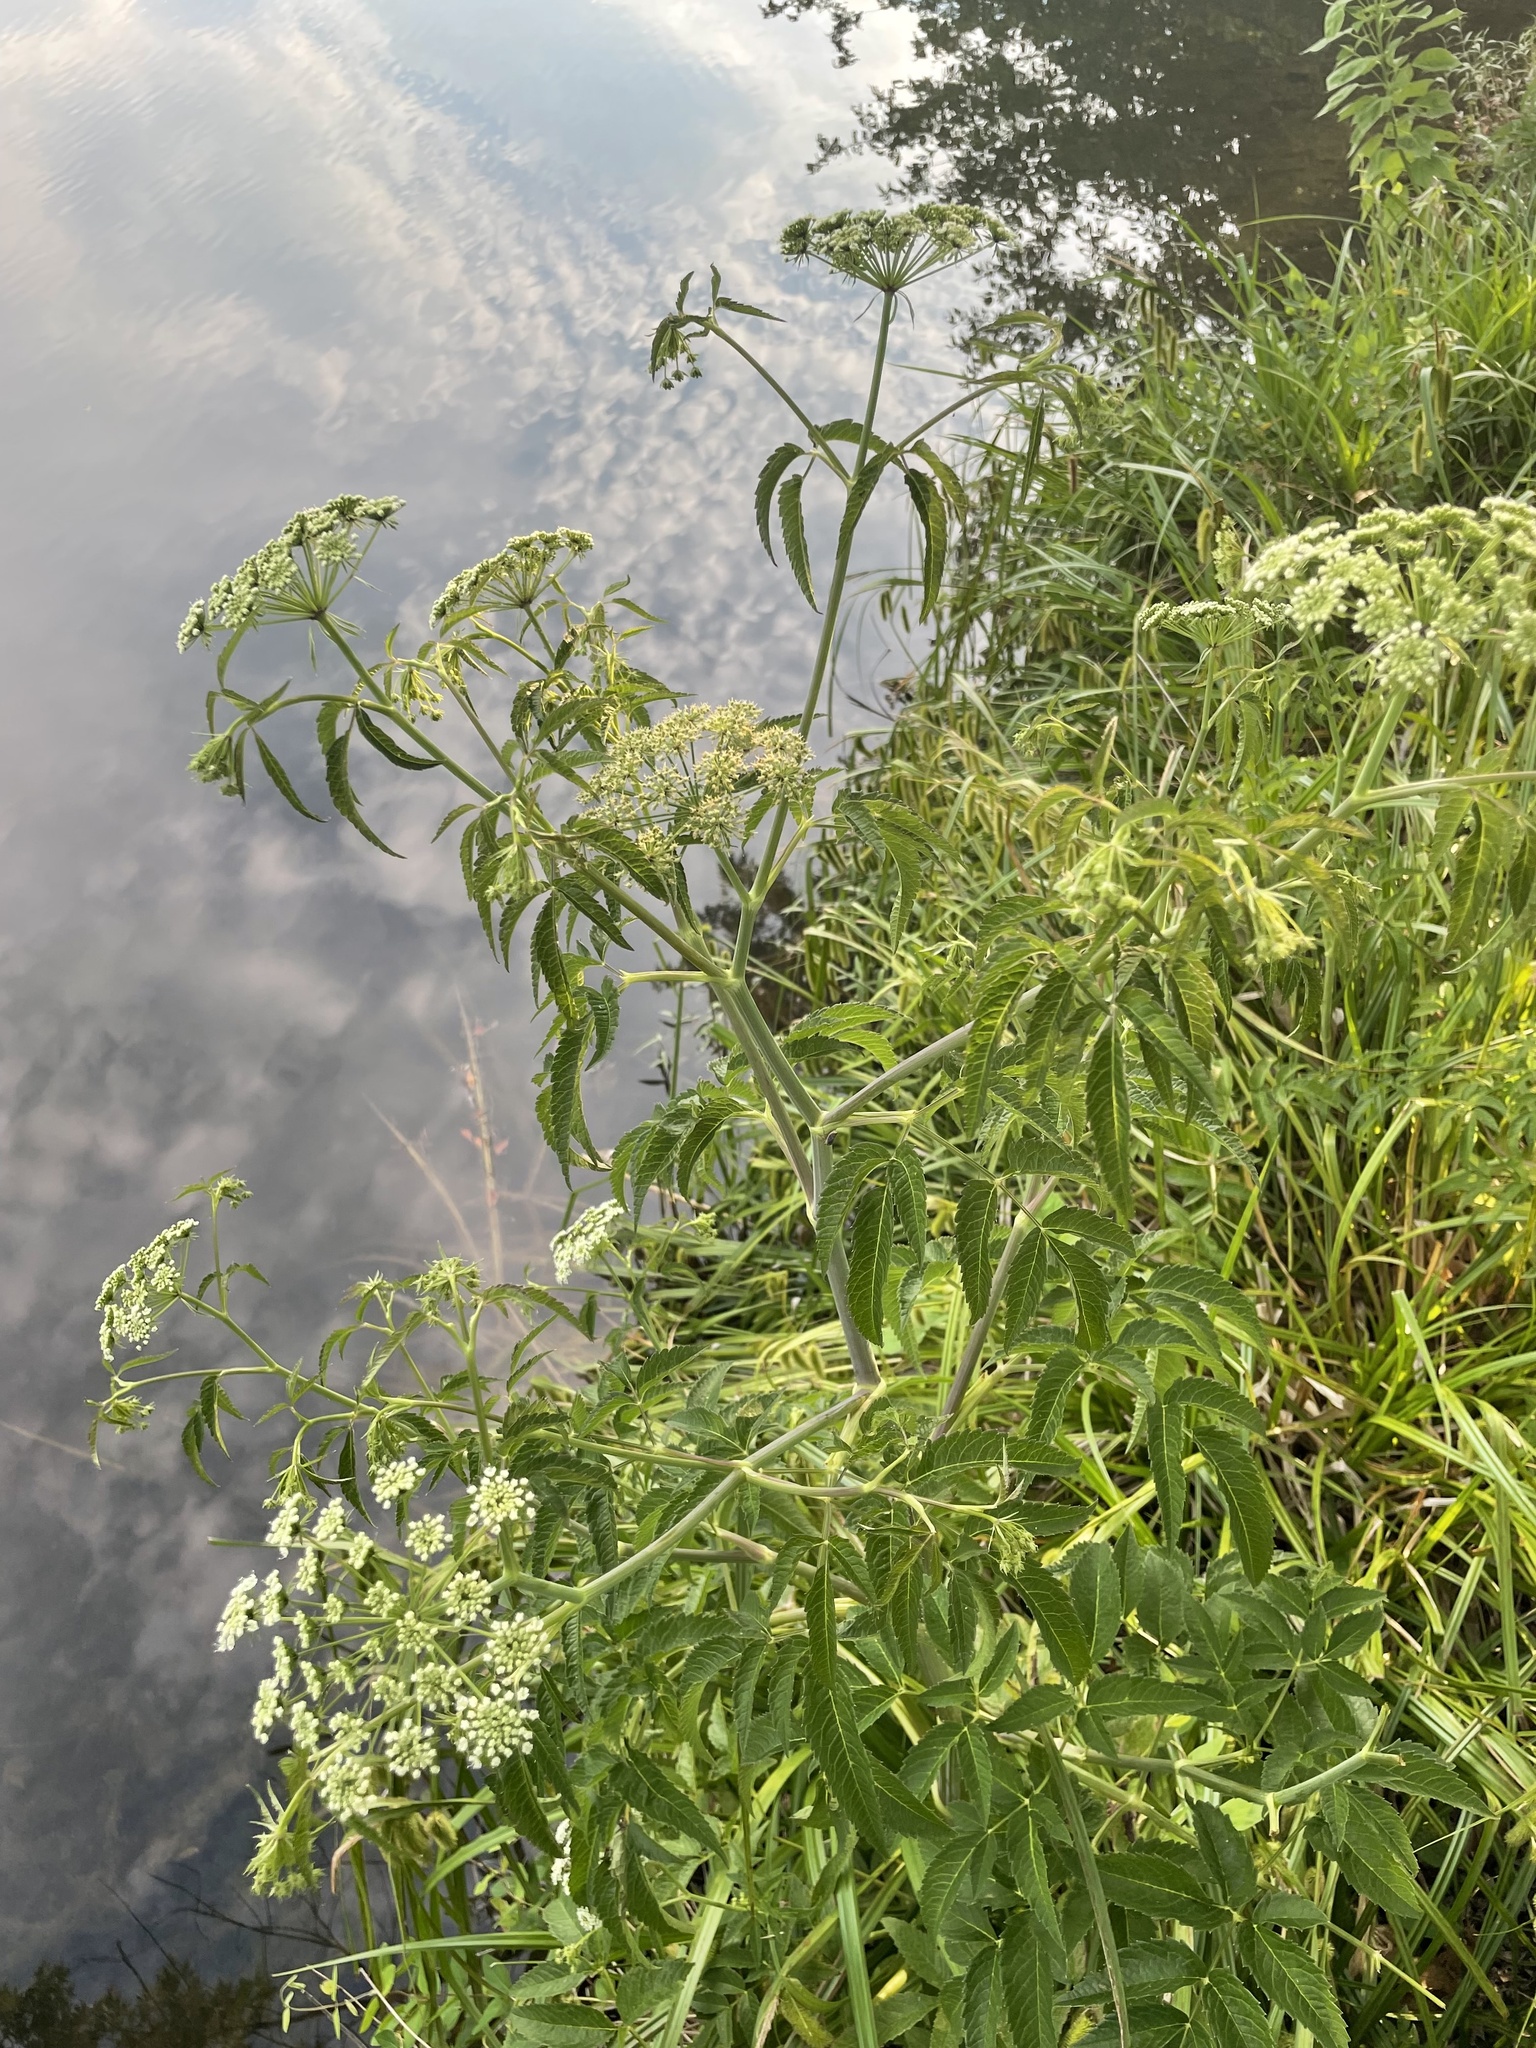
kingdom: Plantae
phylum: Tracheophyta
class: Magnoliopsida
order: Apiales
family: Apiaceae
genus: Cicuta
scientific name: Cicuta maculata
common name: Spotted cowbane
